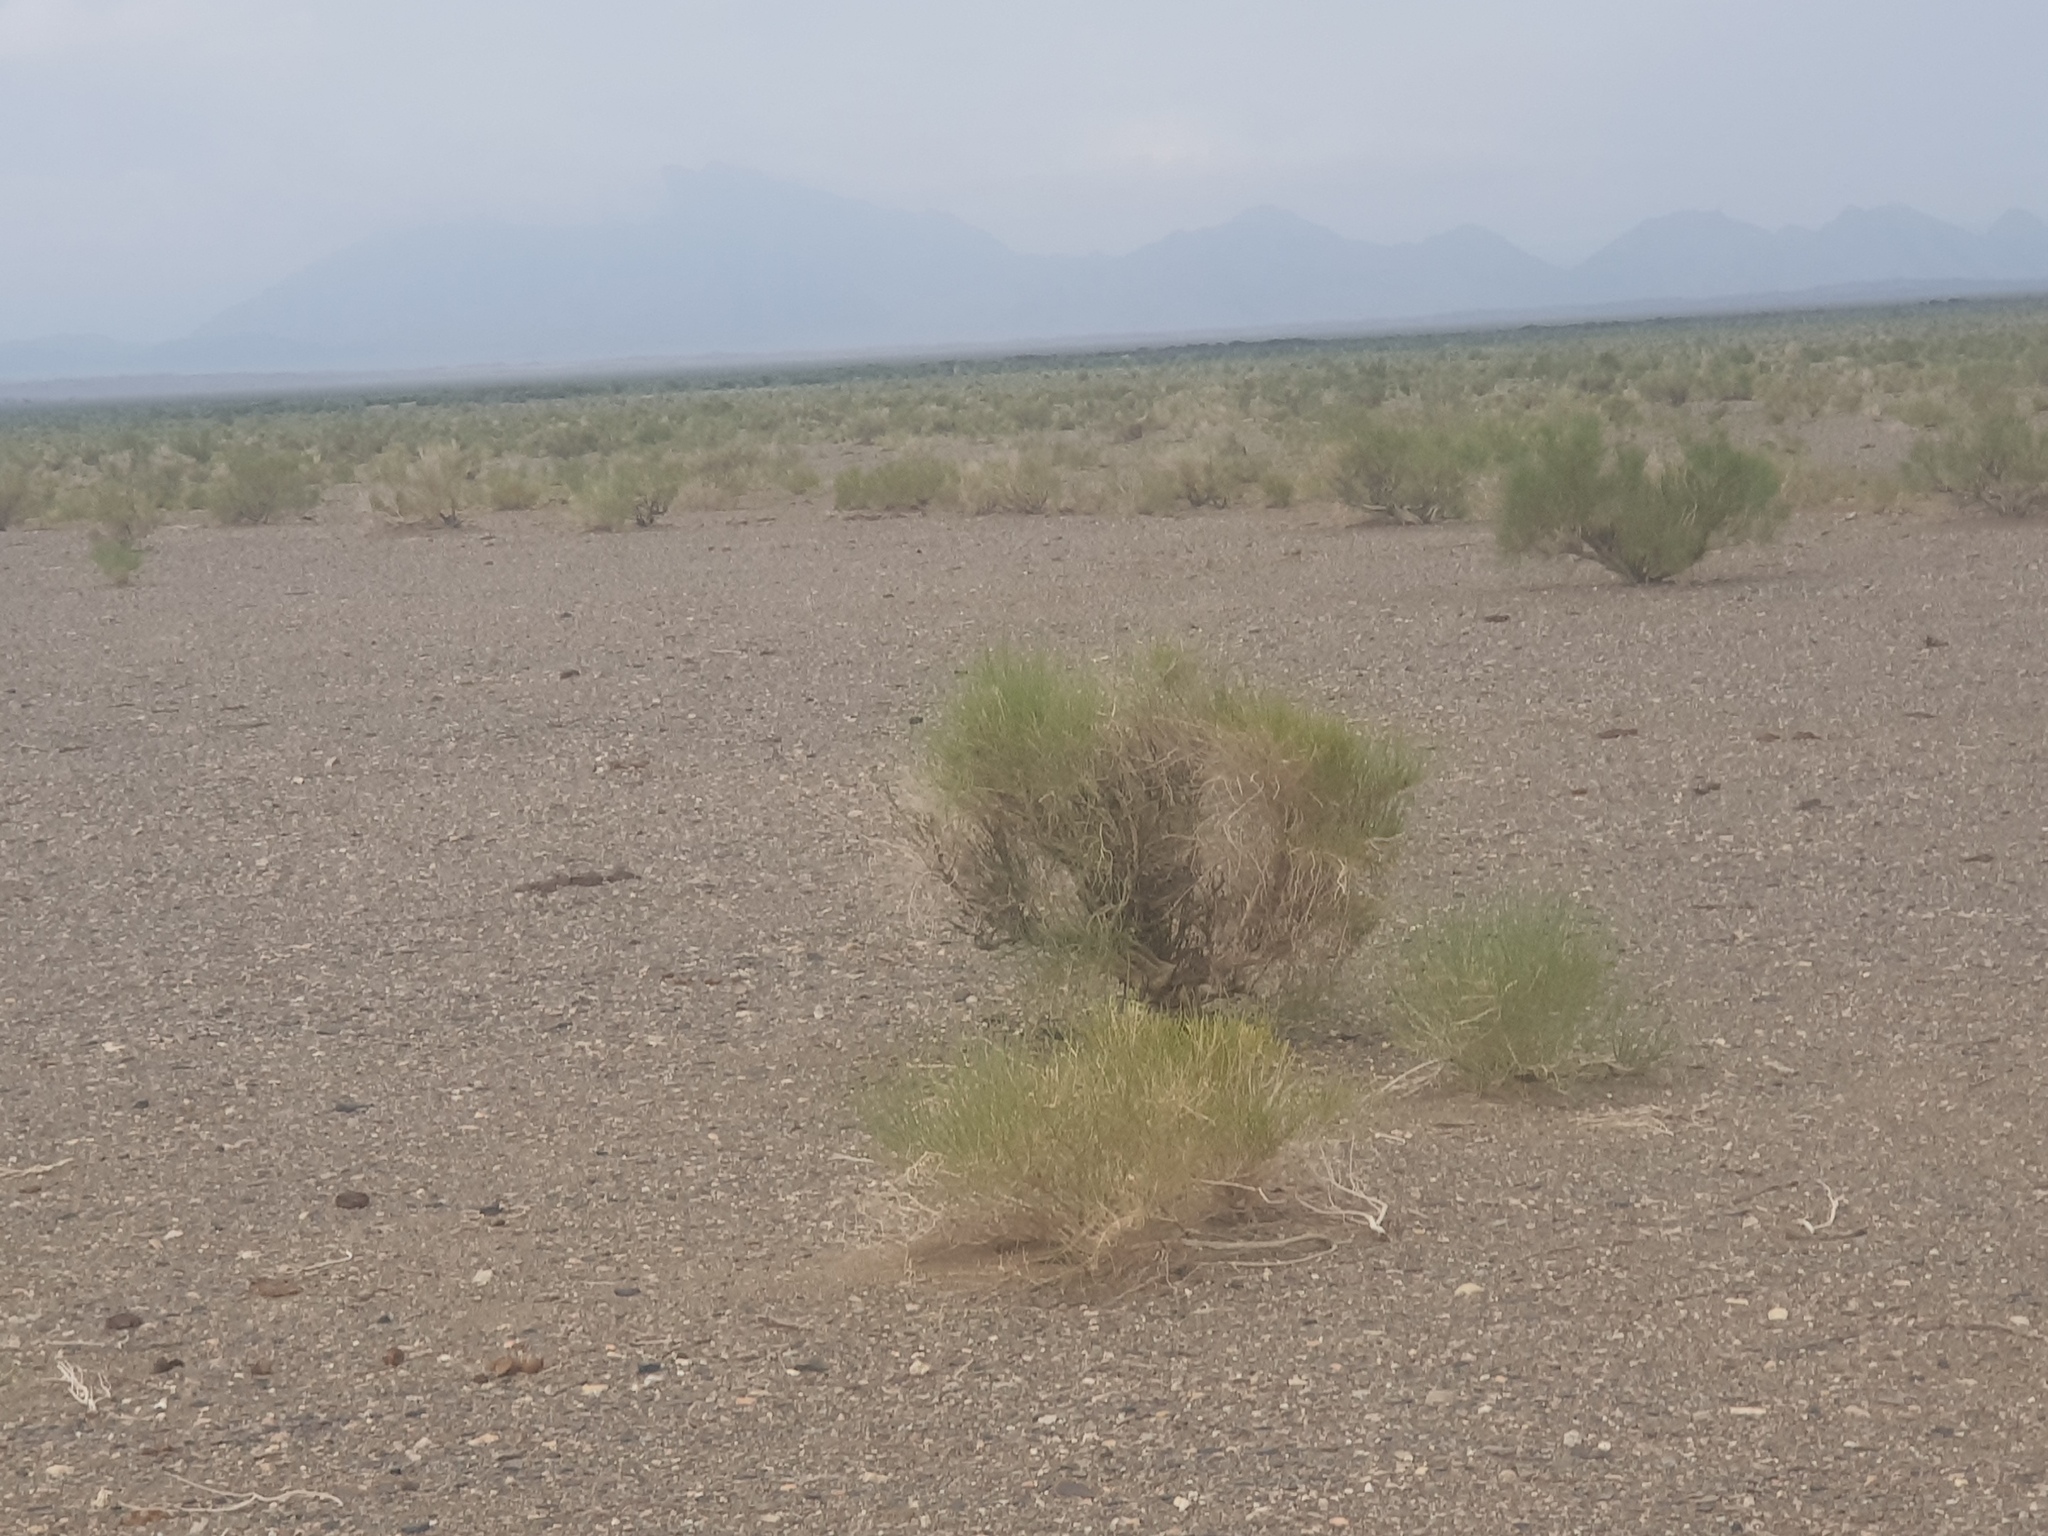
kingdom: Plantae
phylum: Tracheophyta
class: Magnoliopsida
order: Caryophyllales
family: Amaranthaceae
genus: Haloxylon
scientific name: Haloxylon ammodendron
